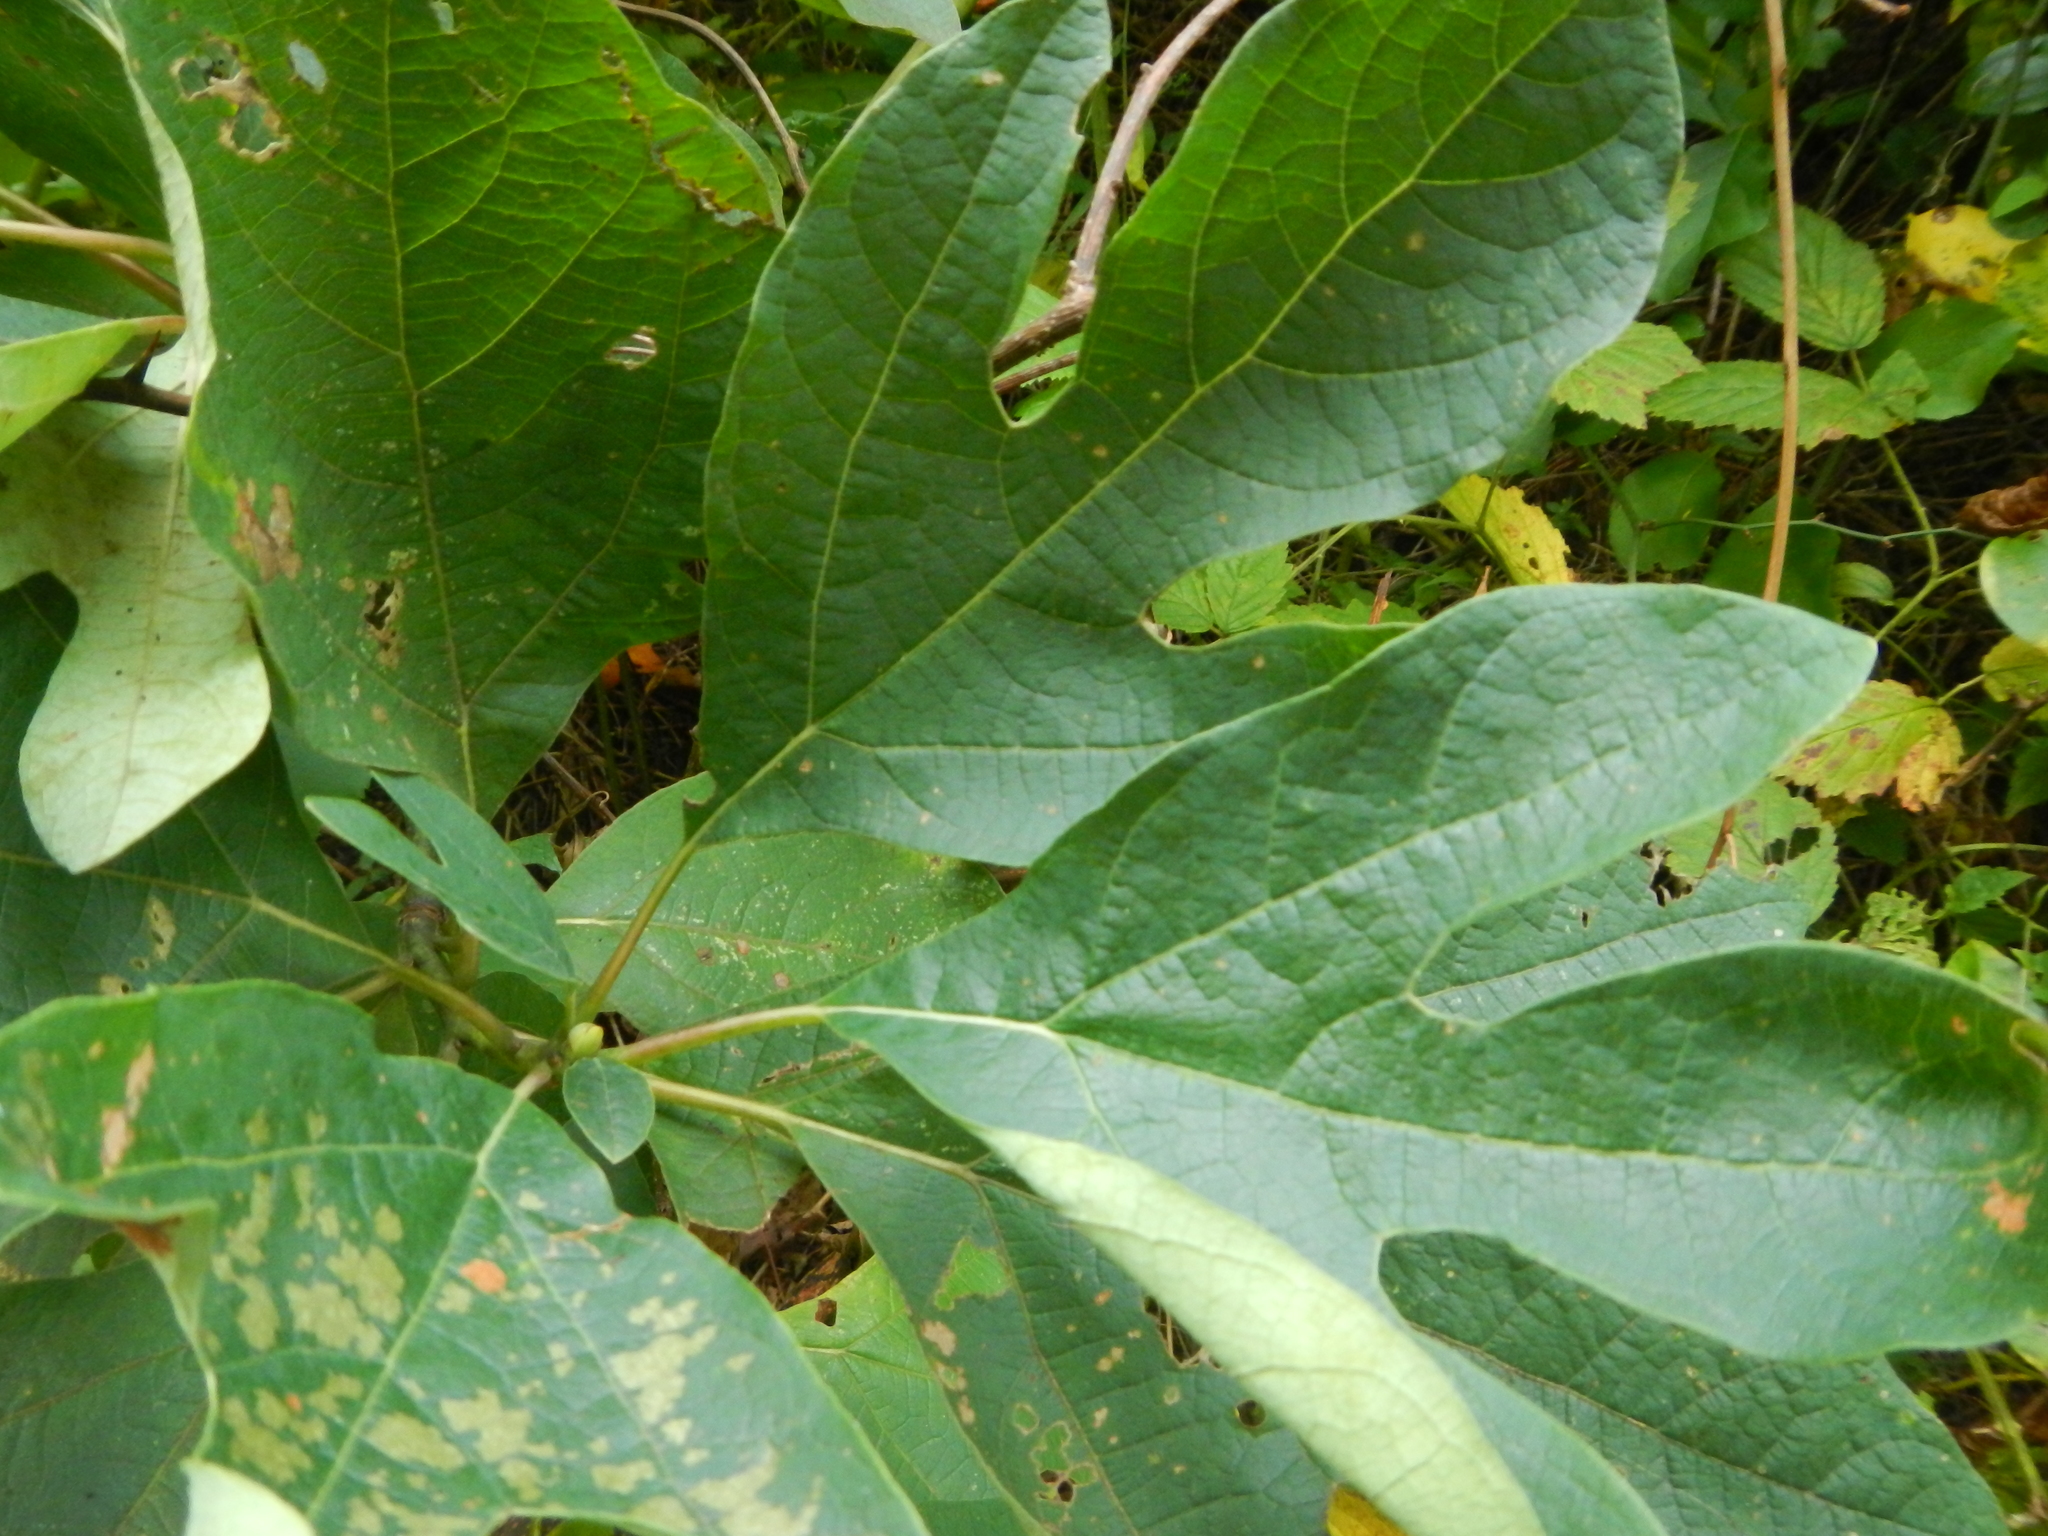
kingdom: Plantae
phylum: Tracheophyta
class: Magnoliopsida
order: Laurales
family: Lauraceae
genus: Sassafras
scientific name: Sassafras albidum
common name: Sassafras
